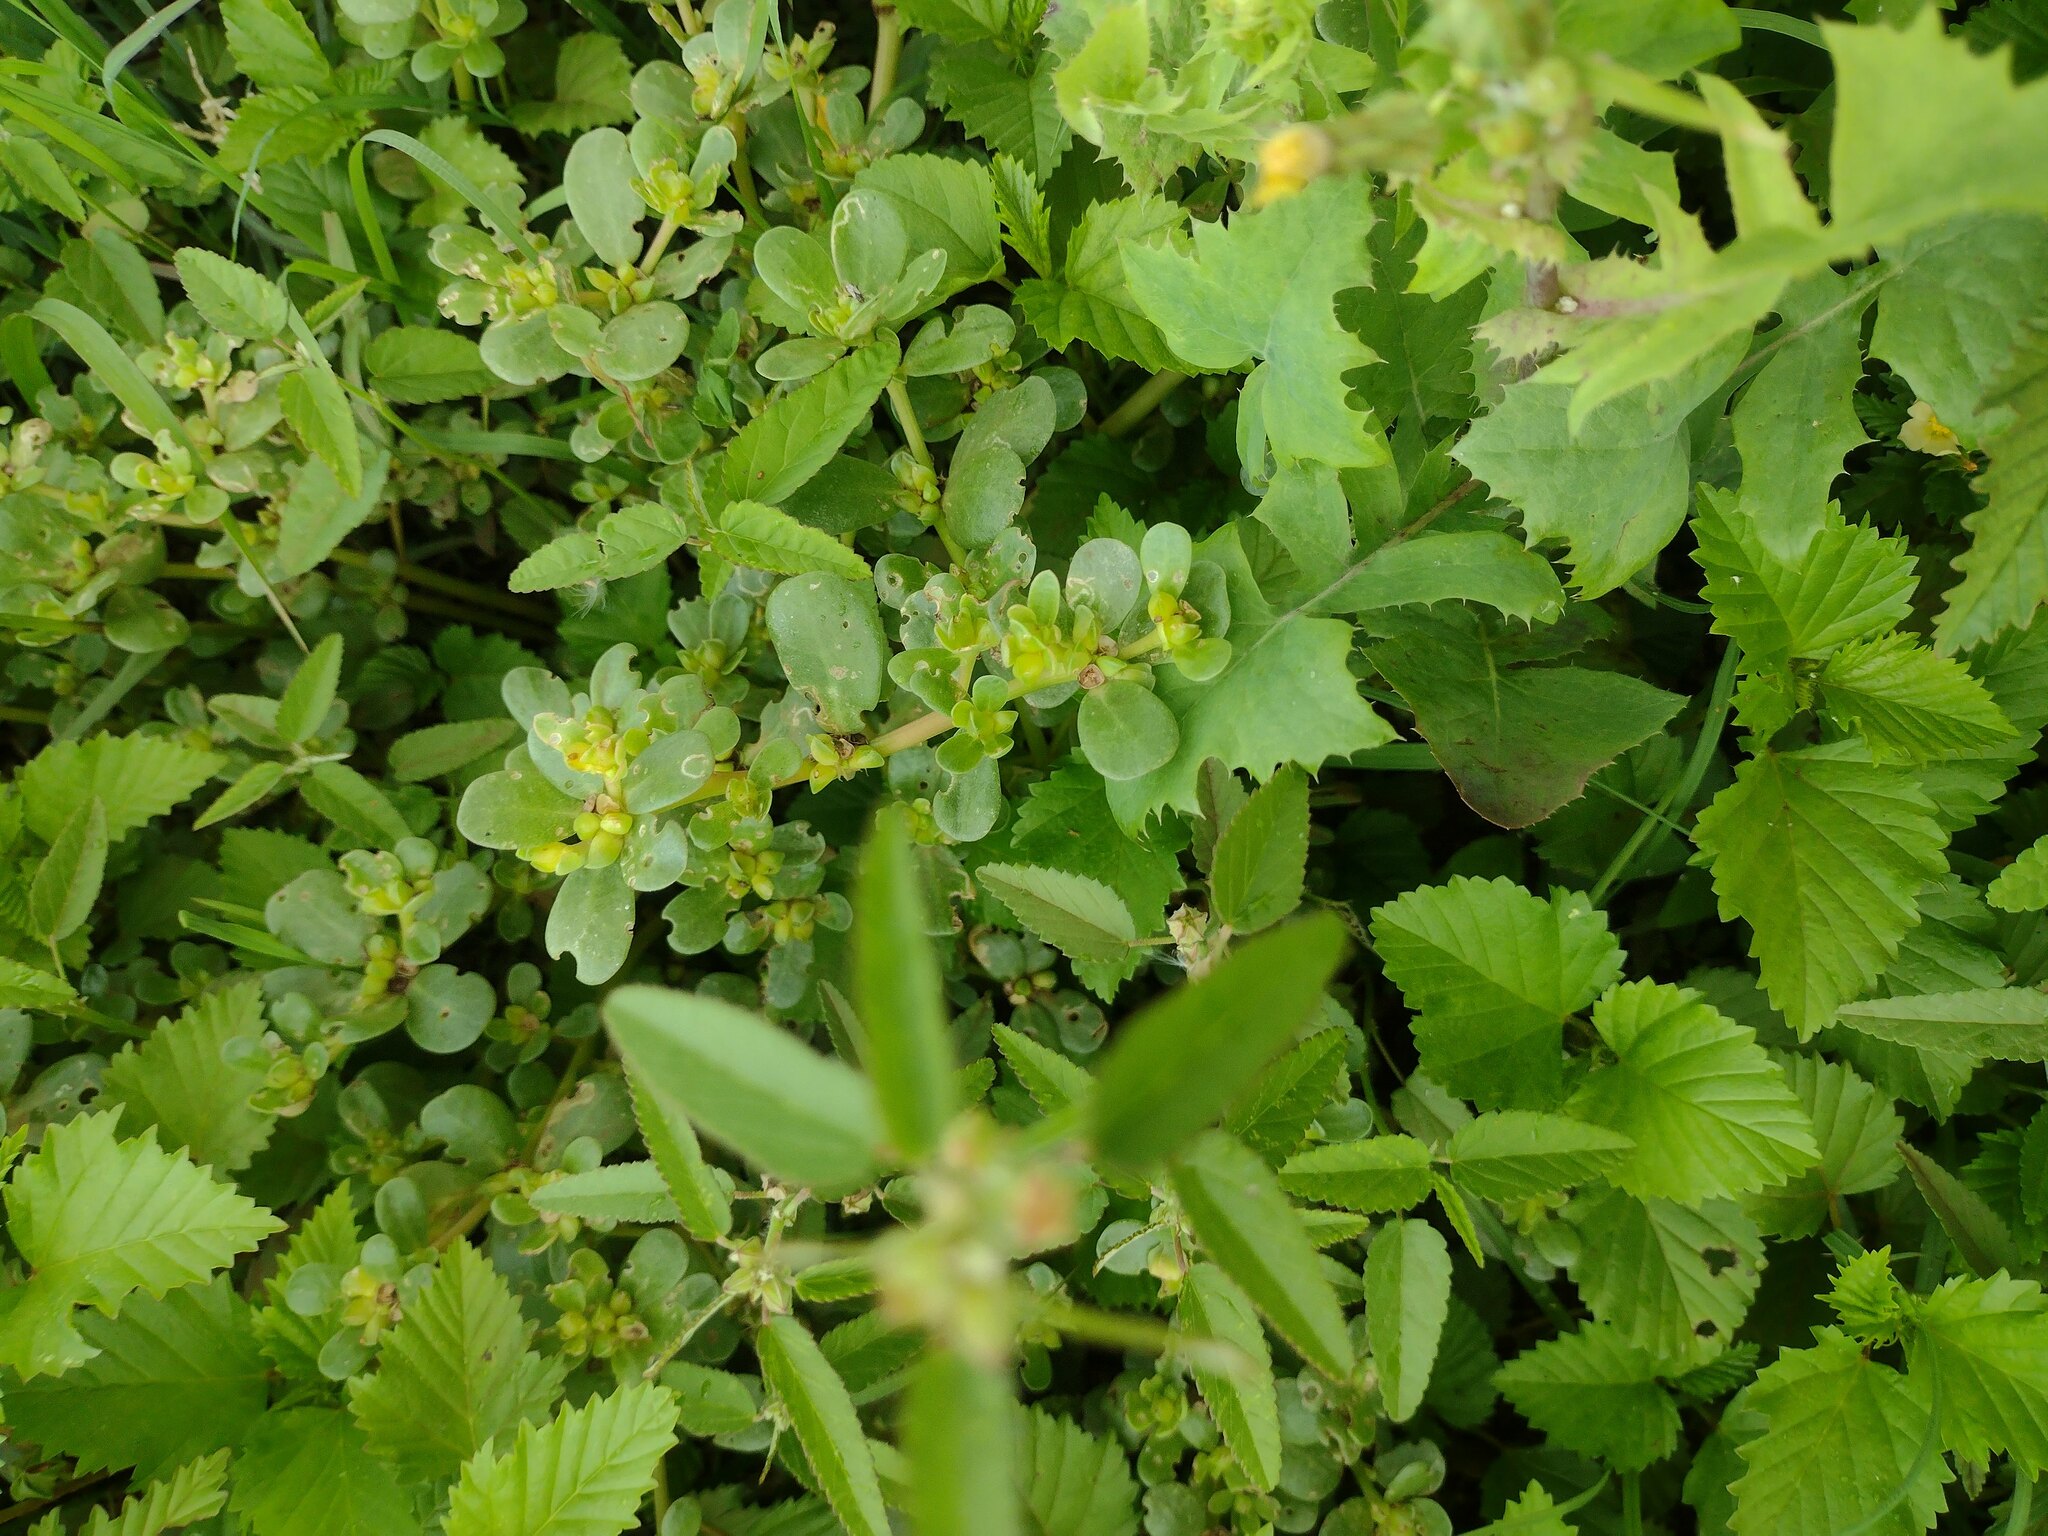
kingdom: Plantae
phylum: Tracheophyta
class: Magnoliopsida
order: Caryophyllales
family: Portulacaceae
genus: Portulaca
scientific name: Portulaca oleracea
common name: Common purslane
